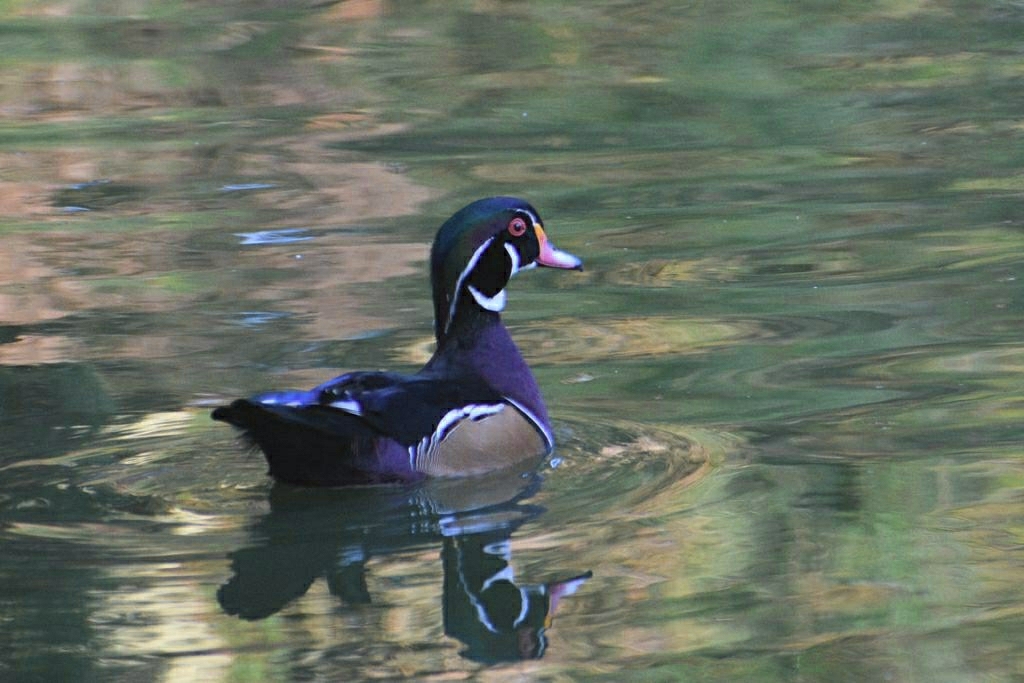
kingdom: Animalia
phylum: Chordata
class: Aves
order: Anseriformes
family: Anatidae
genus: Aix
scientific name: Aix sponsa
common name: Wood duck
